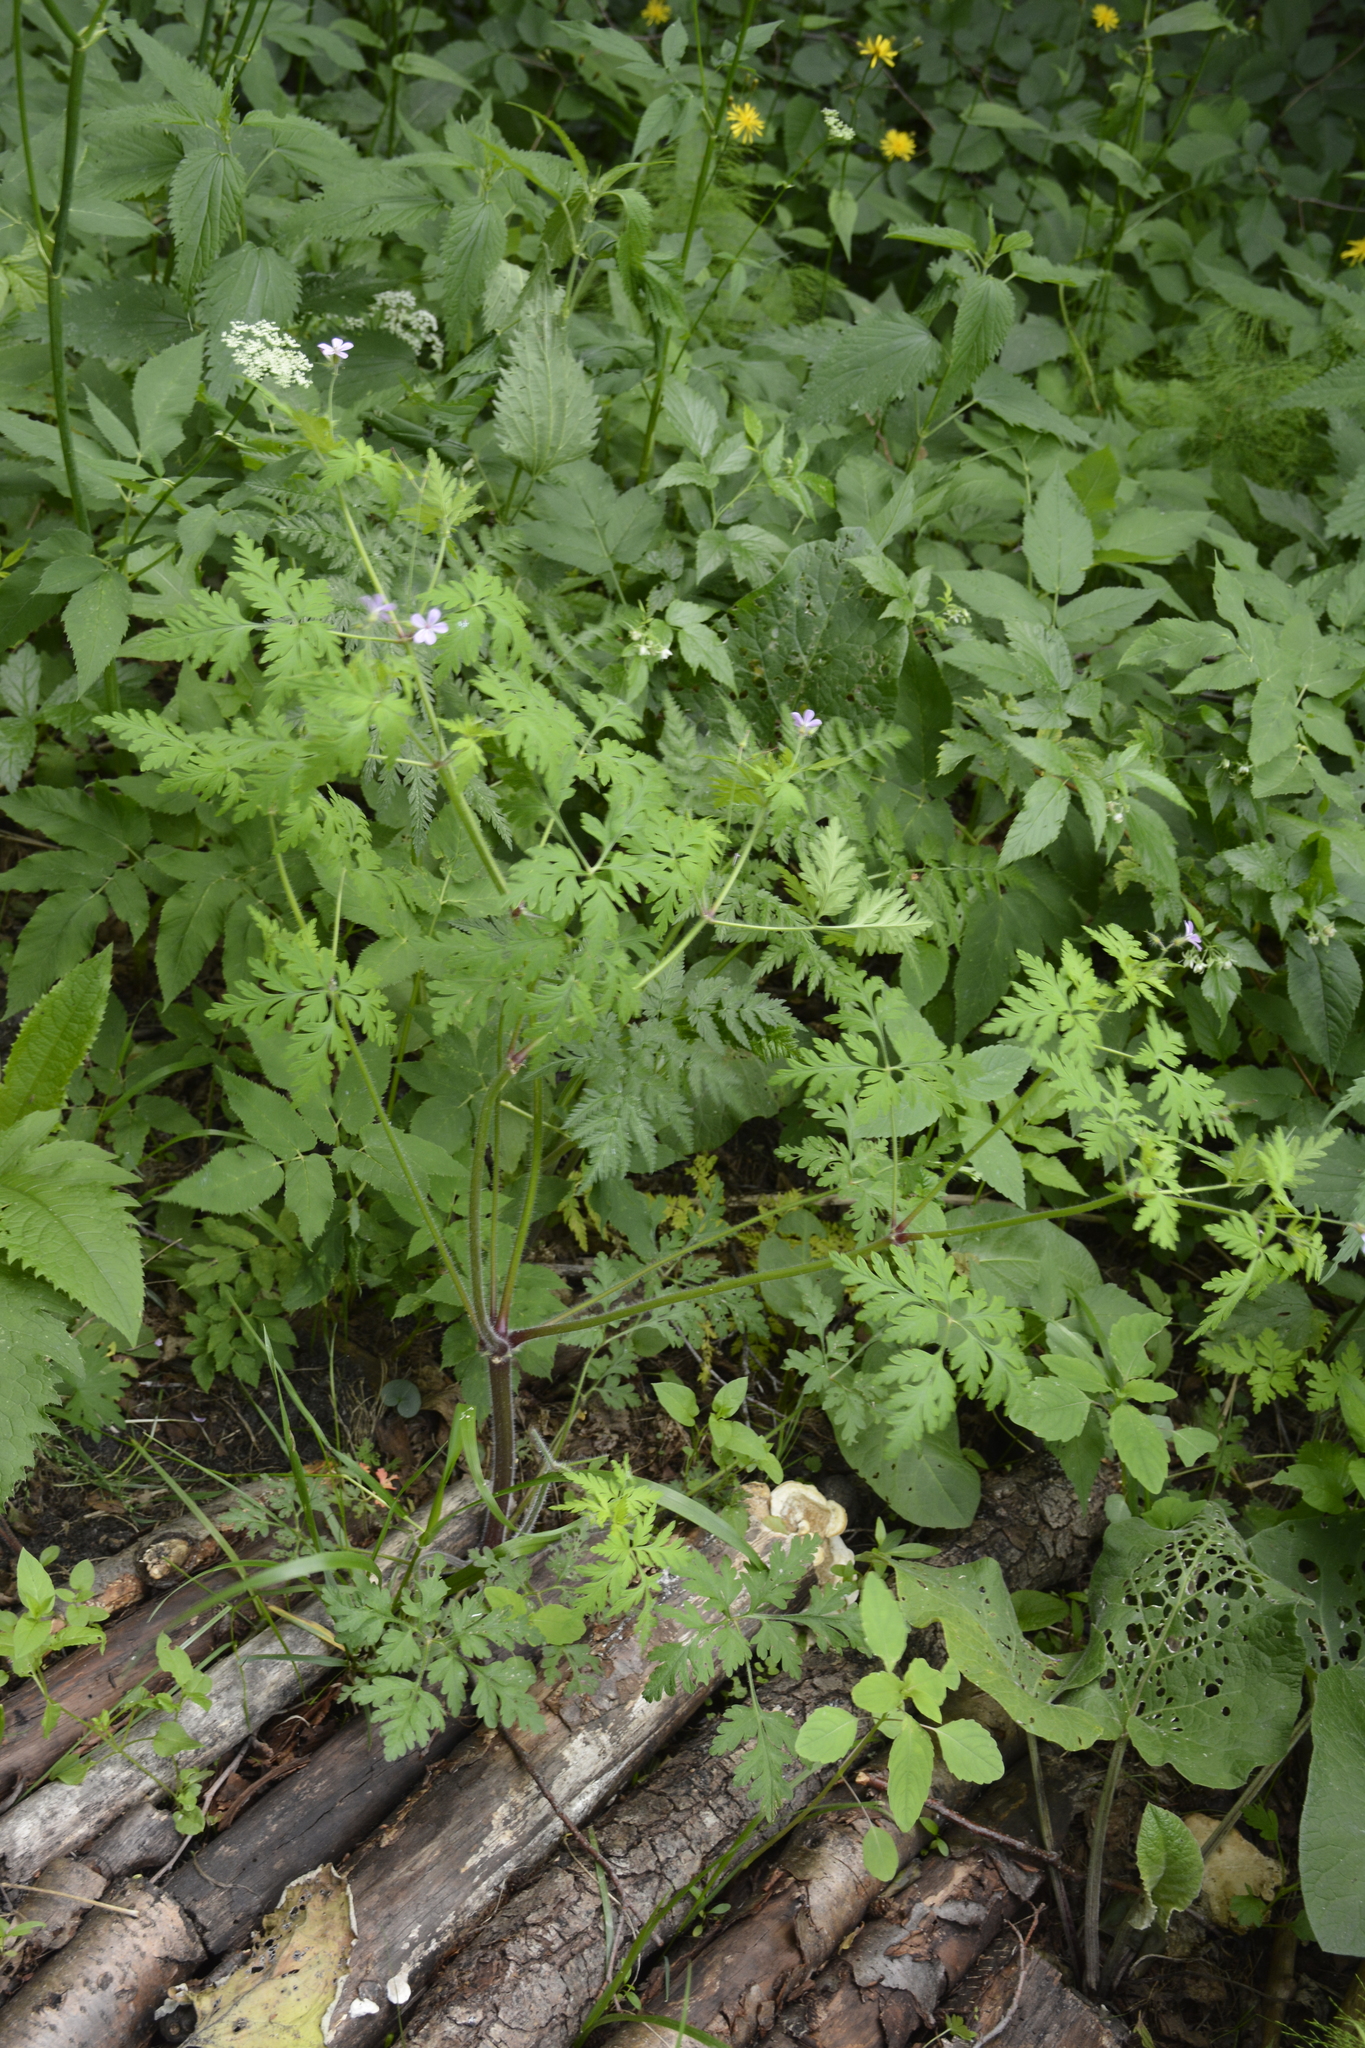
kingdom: Plantae
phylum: Tracheophyta
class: Magnoliopsida
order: Geraniales
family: Geraniaceae
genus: Geranium
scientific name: Geranium robertianum
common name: Herb-robert
